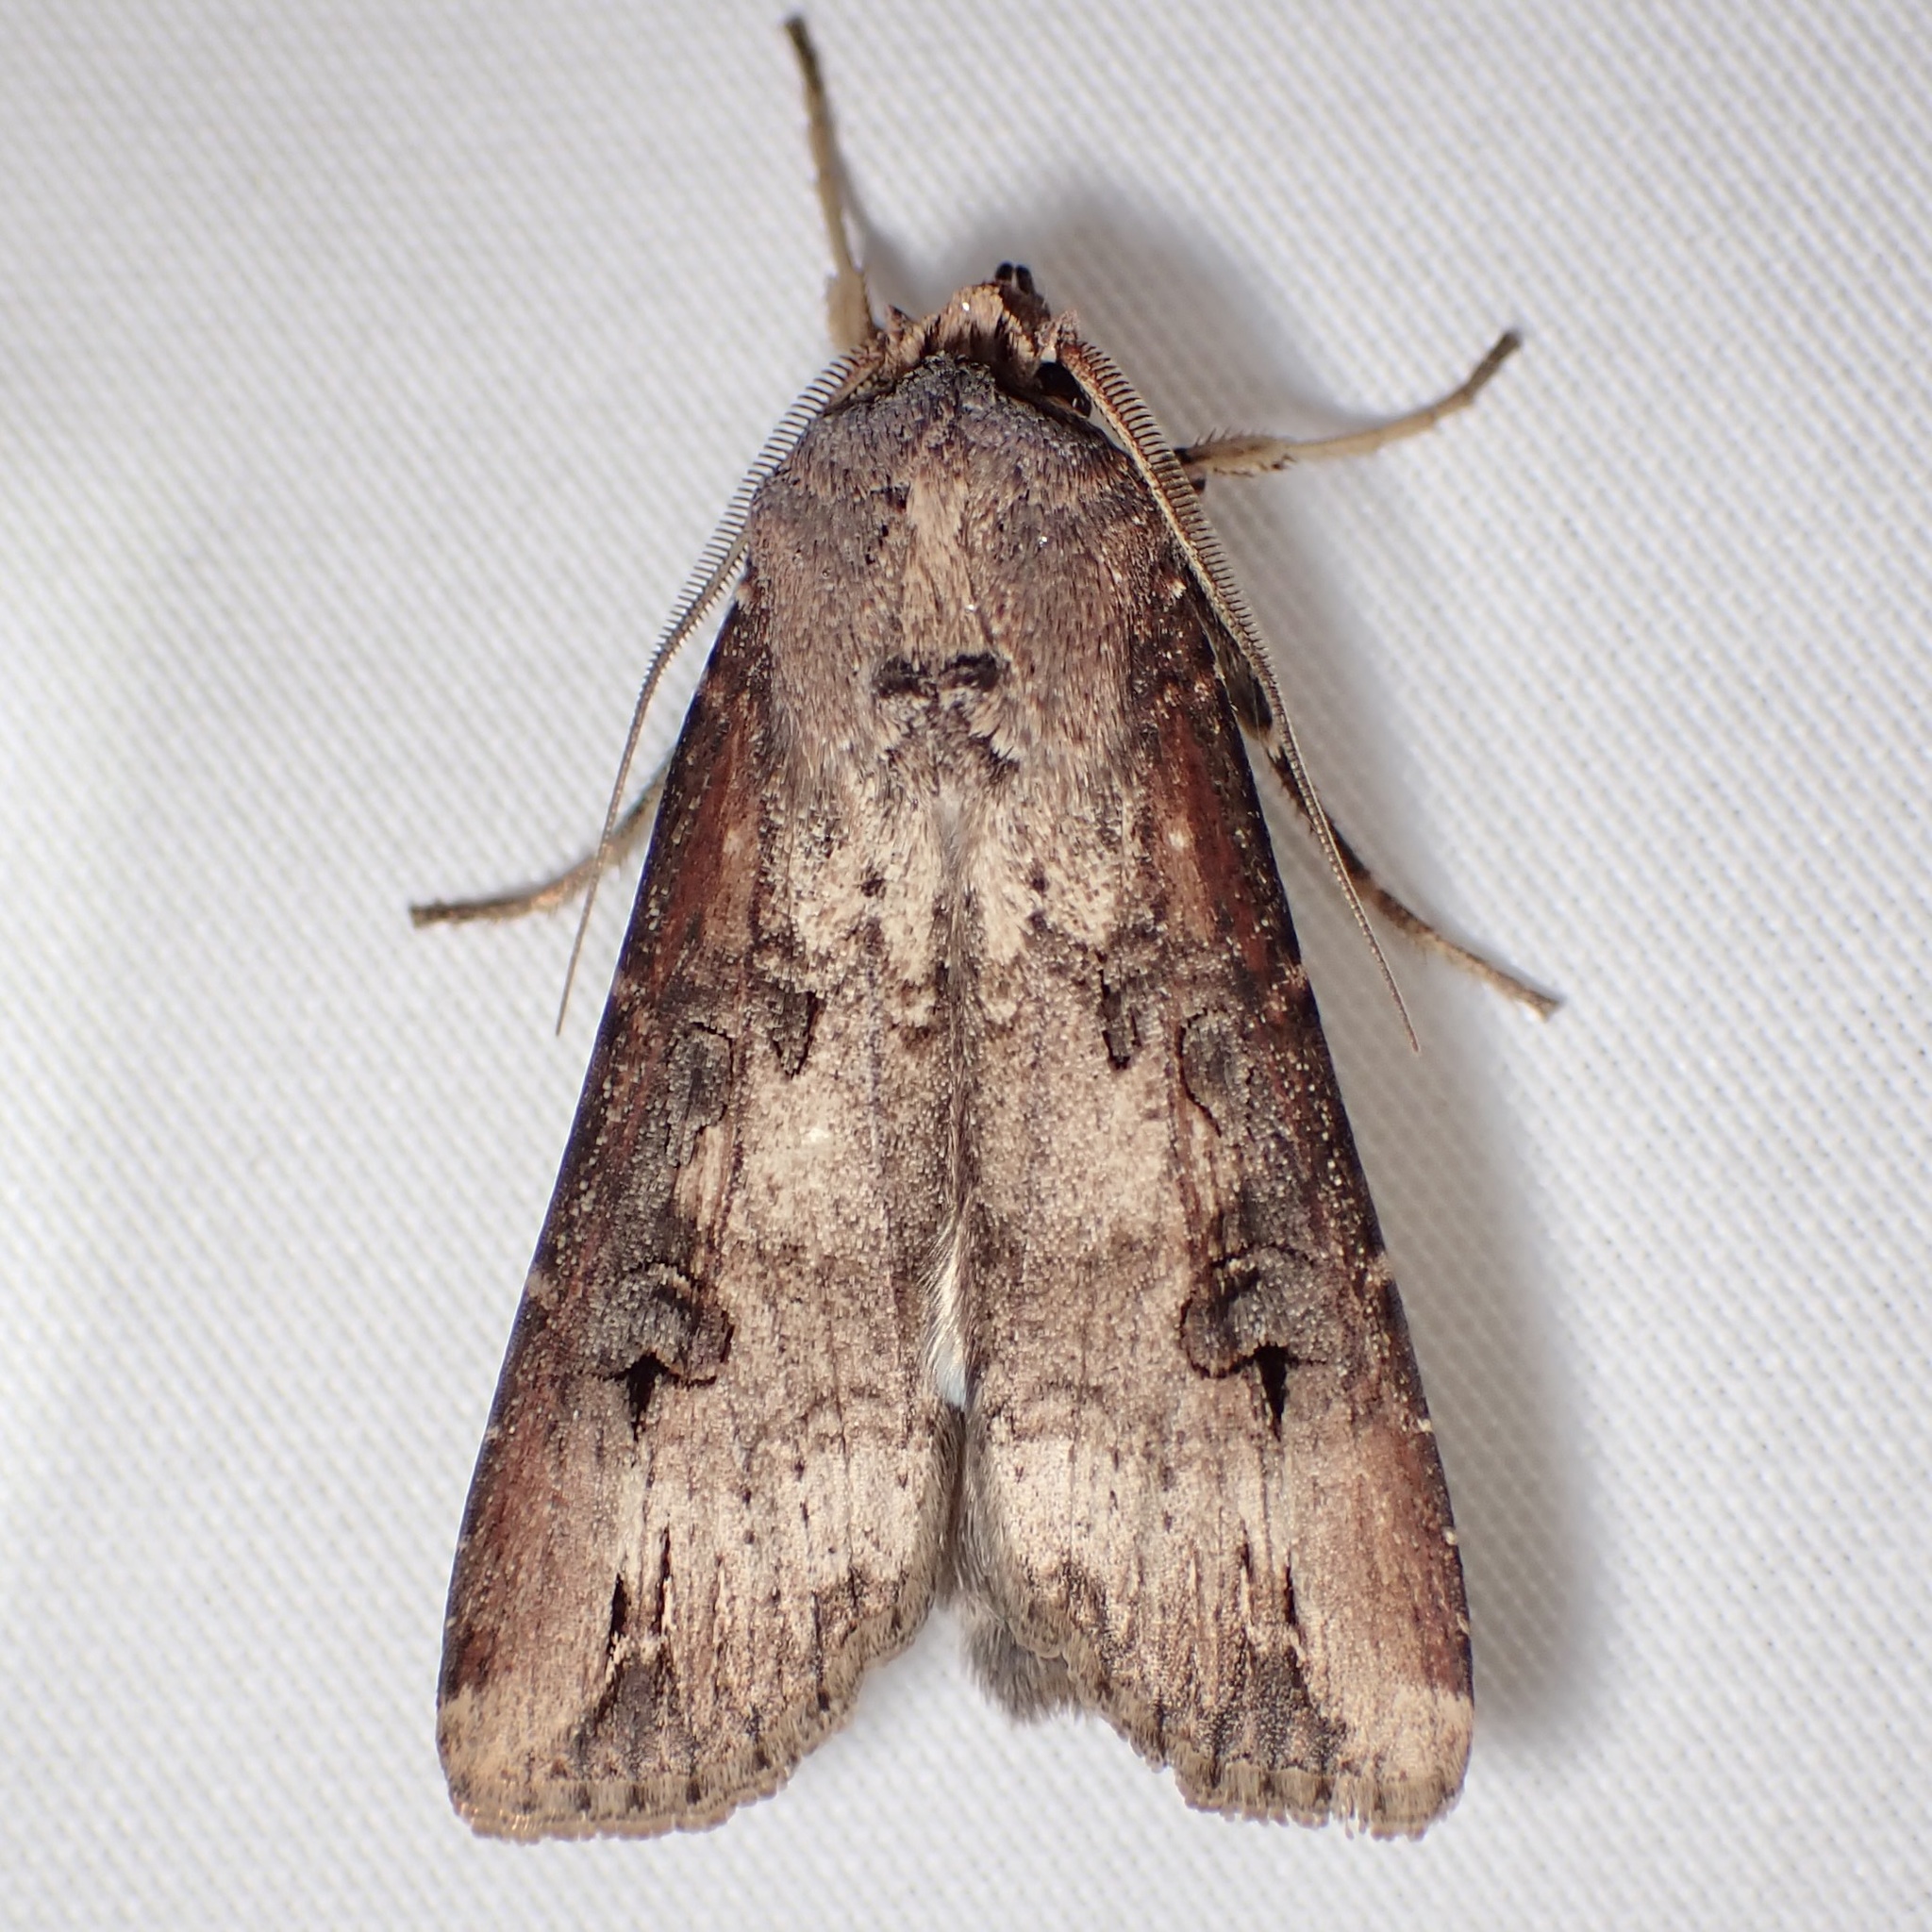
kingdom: Animalia
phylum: Arthropoda
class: Insecta
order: Lepidoptera
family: Noctuidae
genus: Agrotis
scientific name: Agrotis ipsilon
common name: Dark sword-grass
